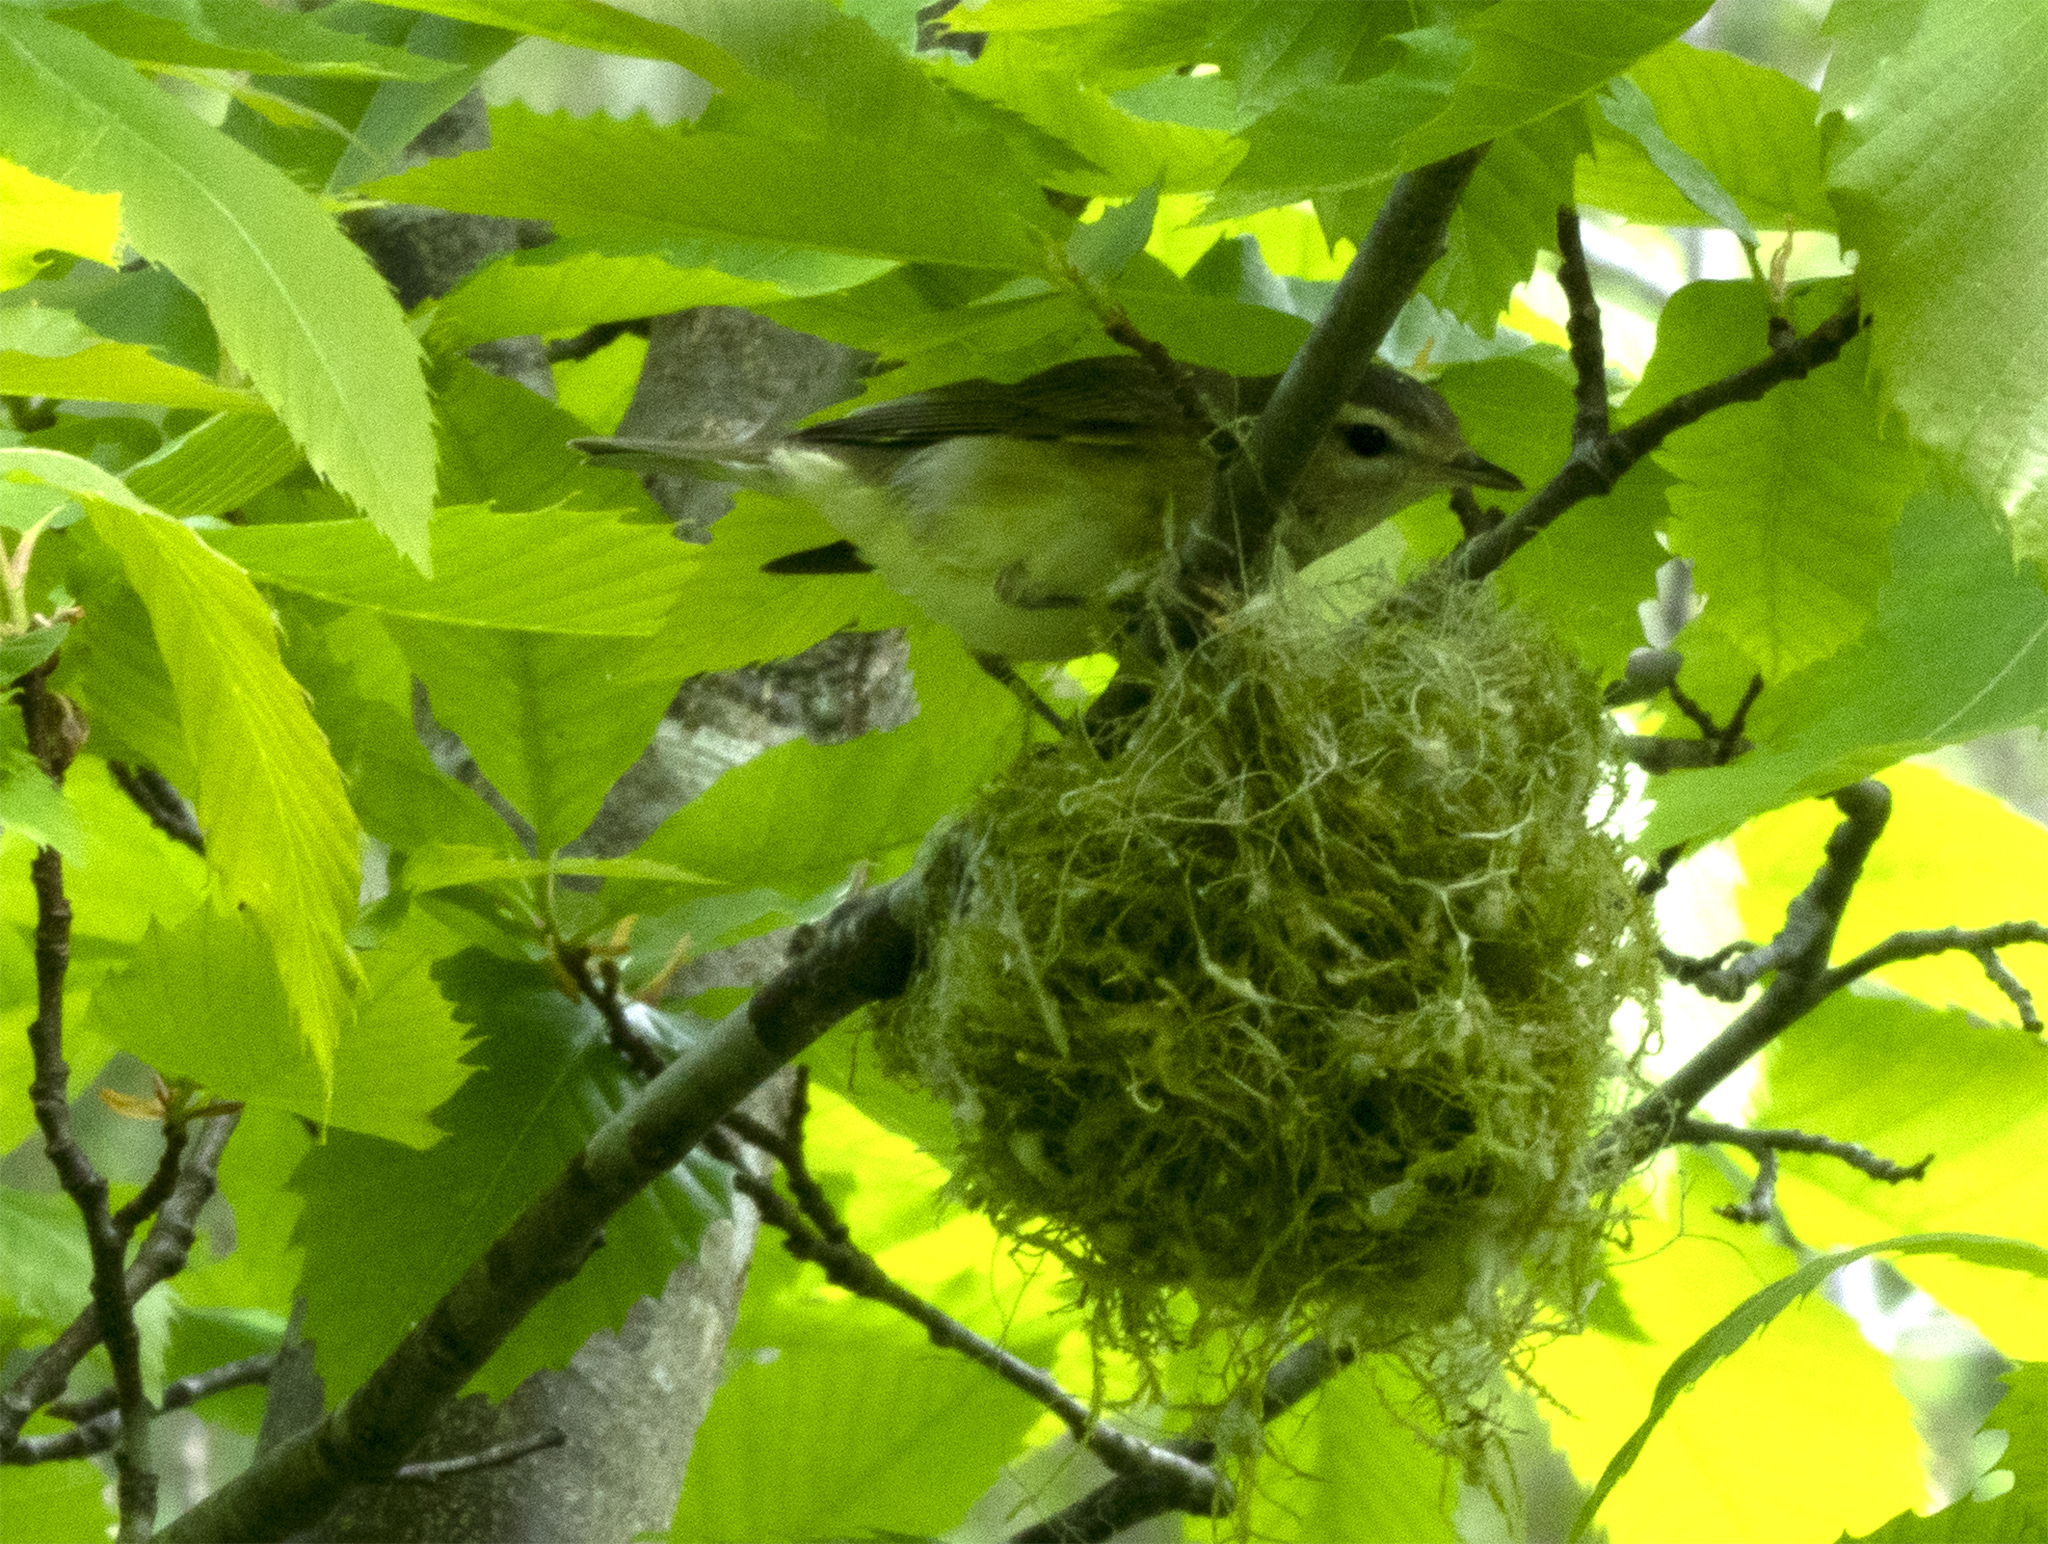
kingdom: Animalia
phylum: Chordata
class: Aves
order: Passeriformes
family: Vireonidae
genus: Vireo
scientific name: Vireo gilvus
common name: Warbling vireo
